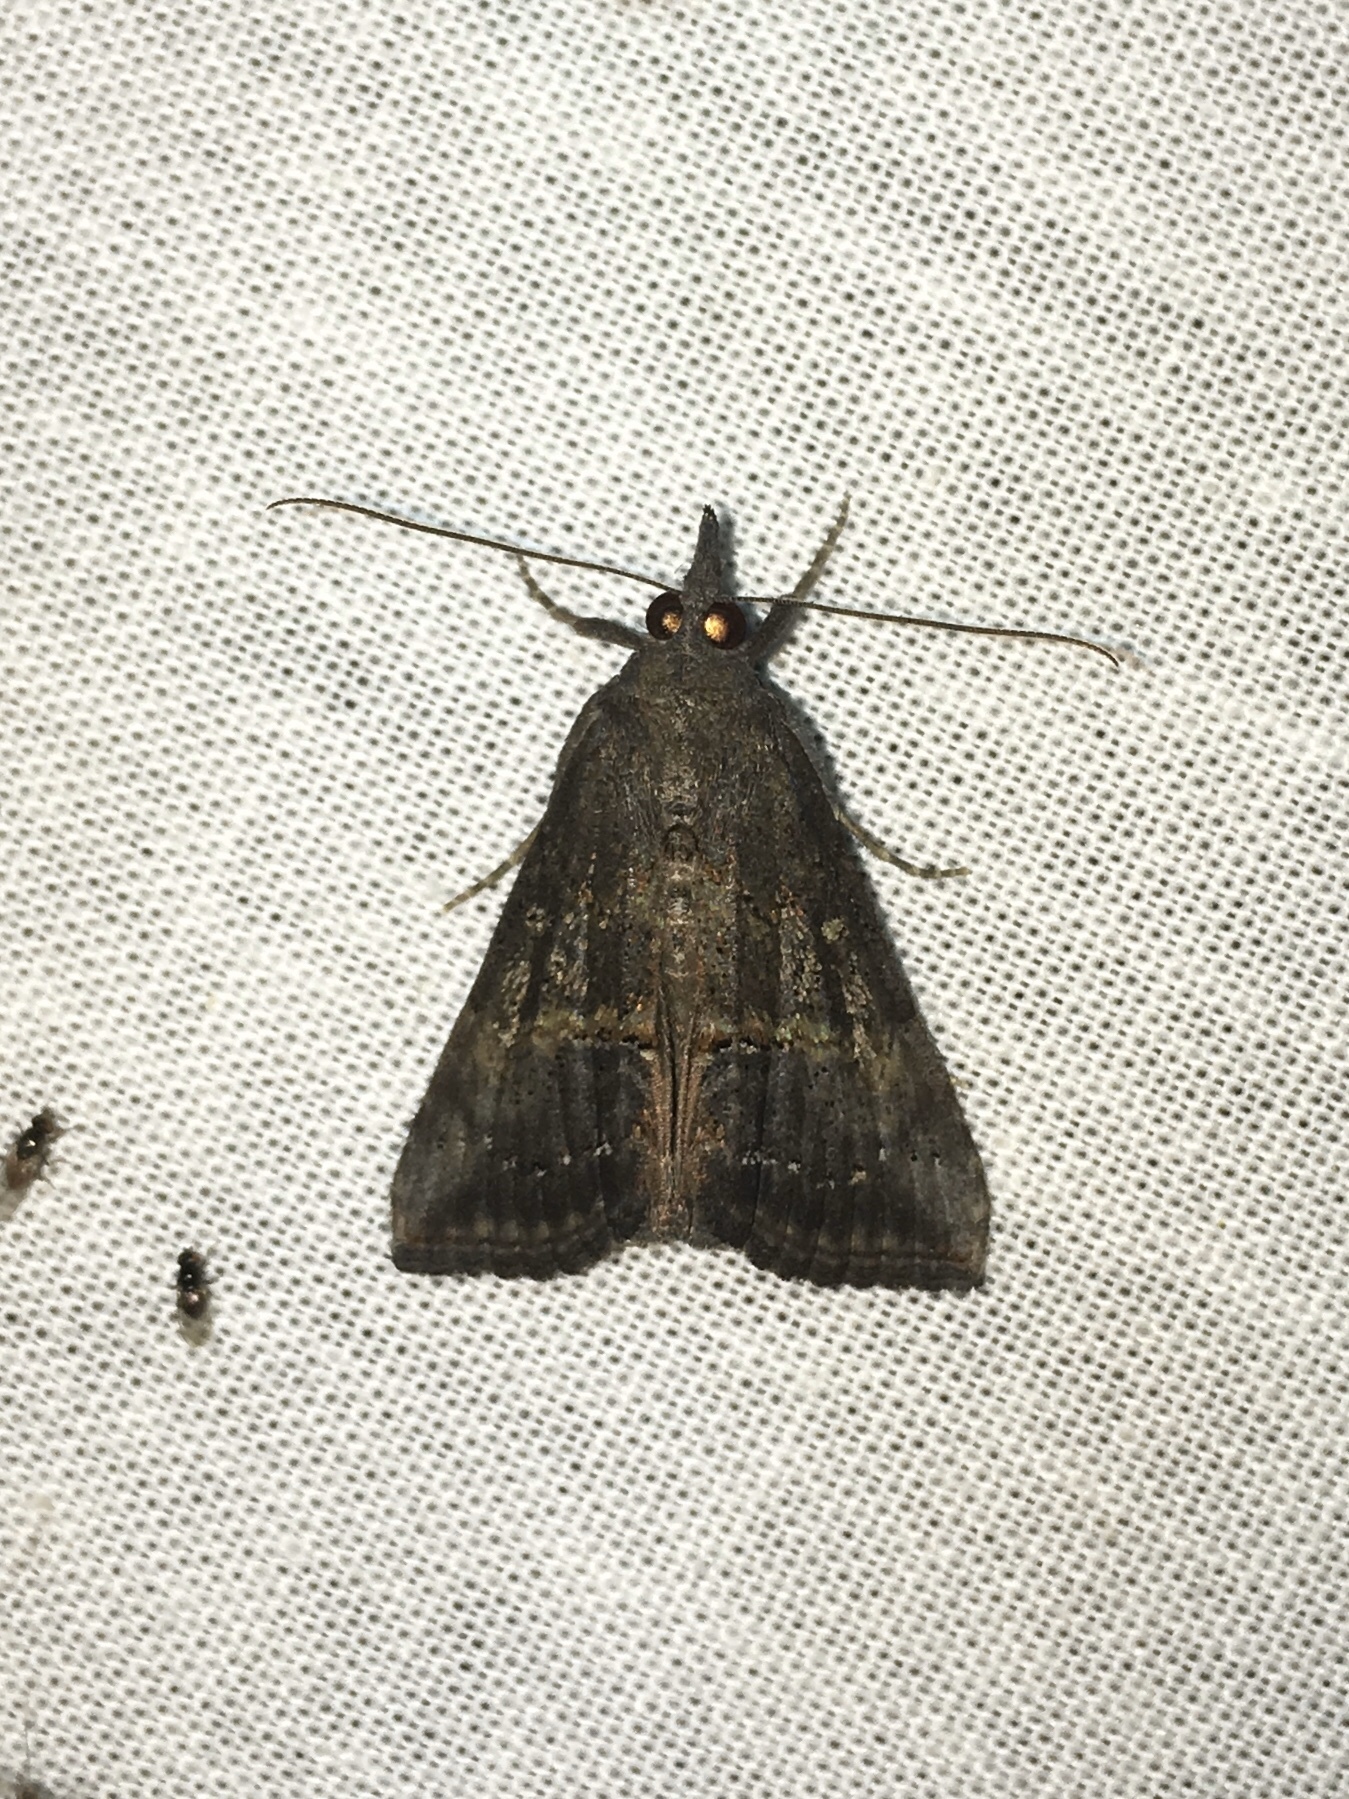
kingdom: Animalia
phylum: Arthropoda
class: Insecta
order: Lepidoptera
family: Erebidae
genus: Hypena
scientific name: Hypena scabra
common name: Green cloverworm
